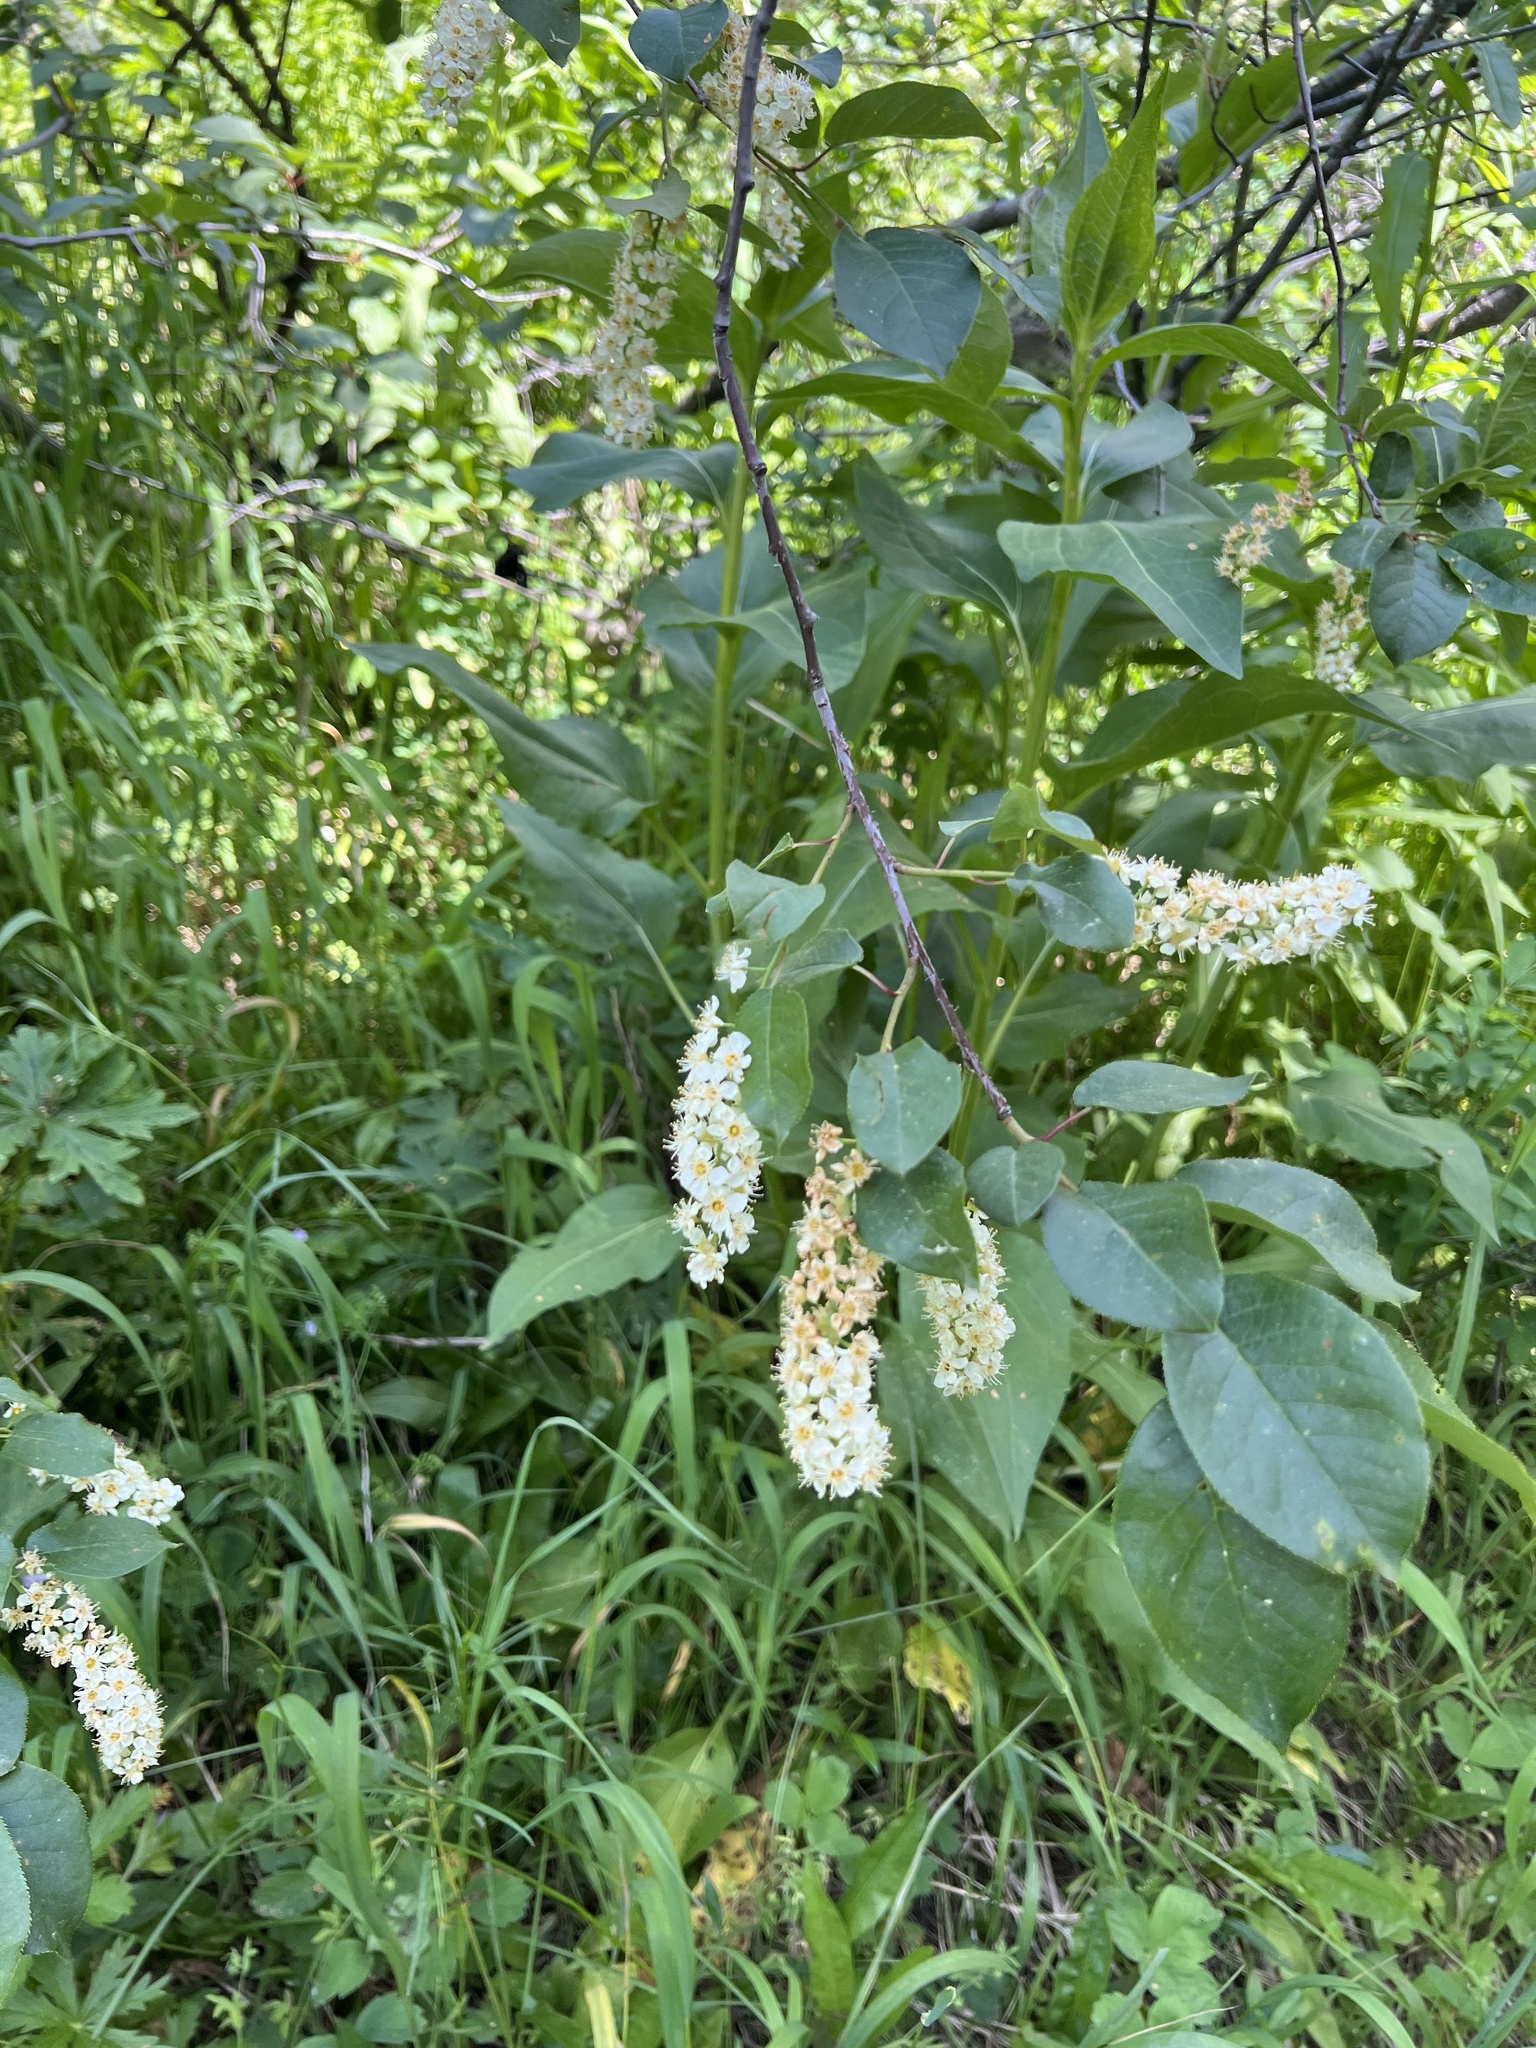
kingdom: Plantae
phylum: Tracheophyta
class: Magnoliopsida
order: Rosales
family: Rosaceae
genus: Prunus
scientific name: Prunus virginiana
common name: Chokecherry
